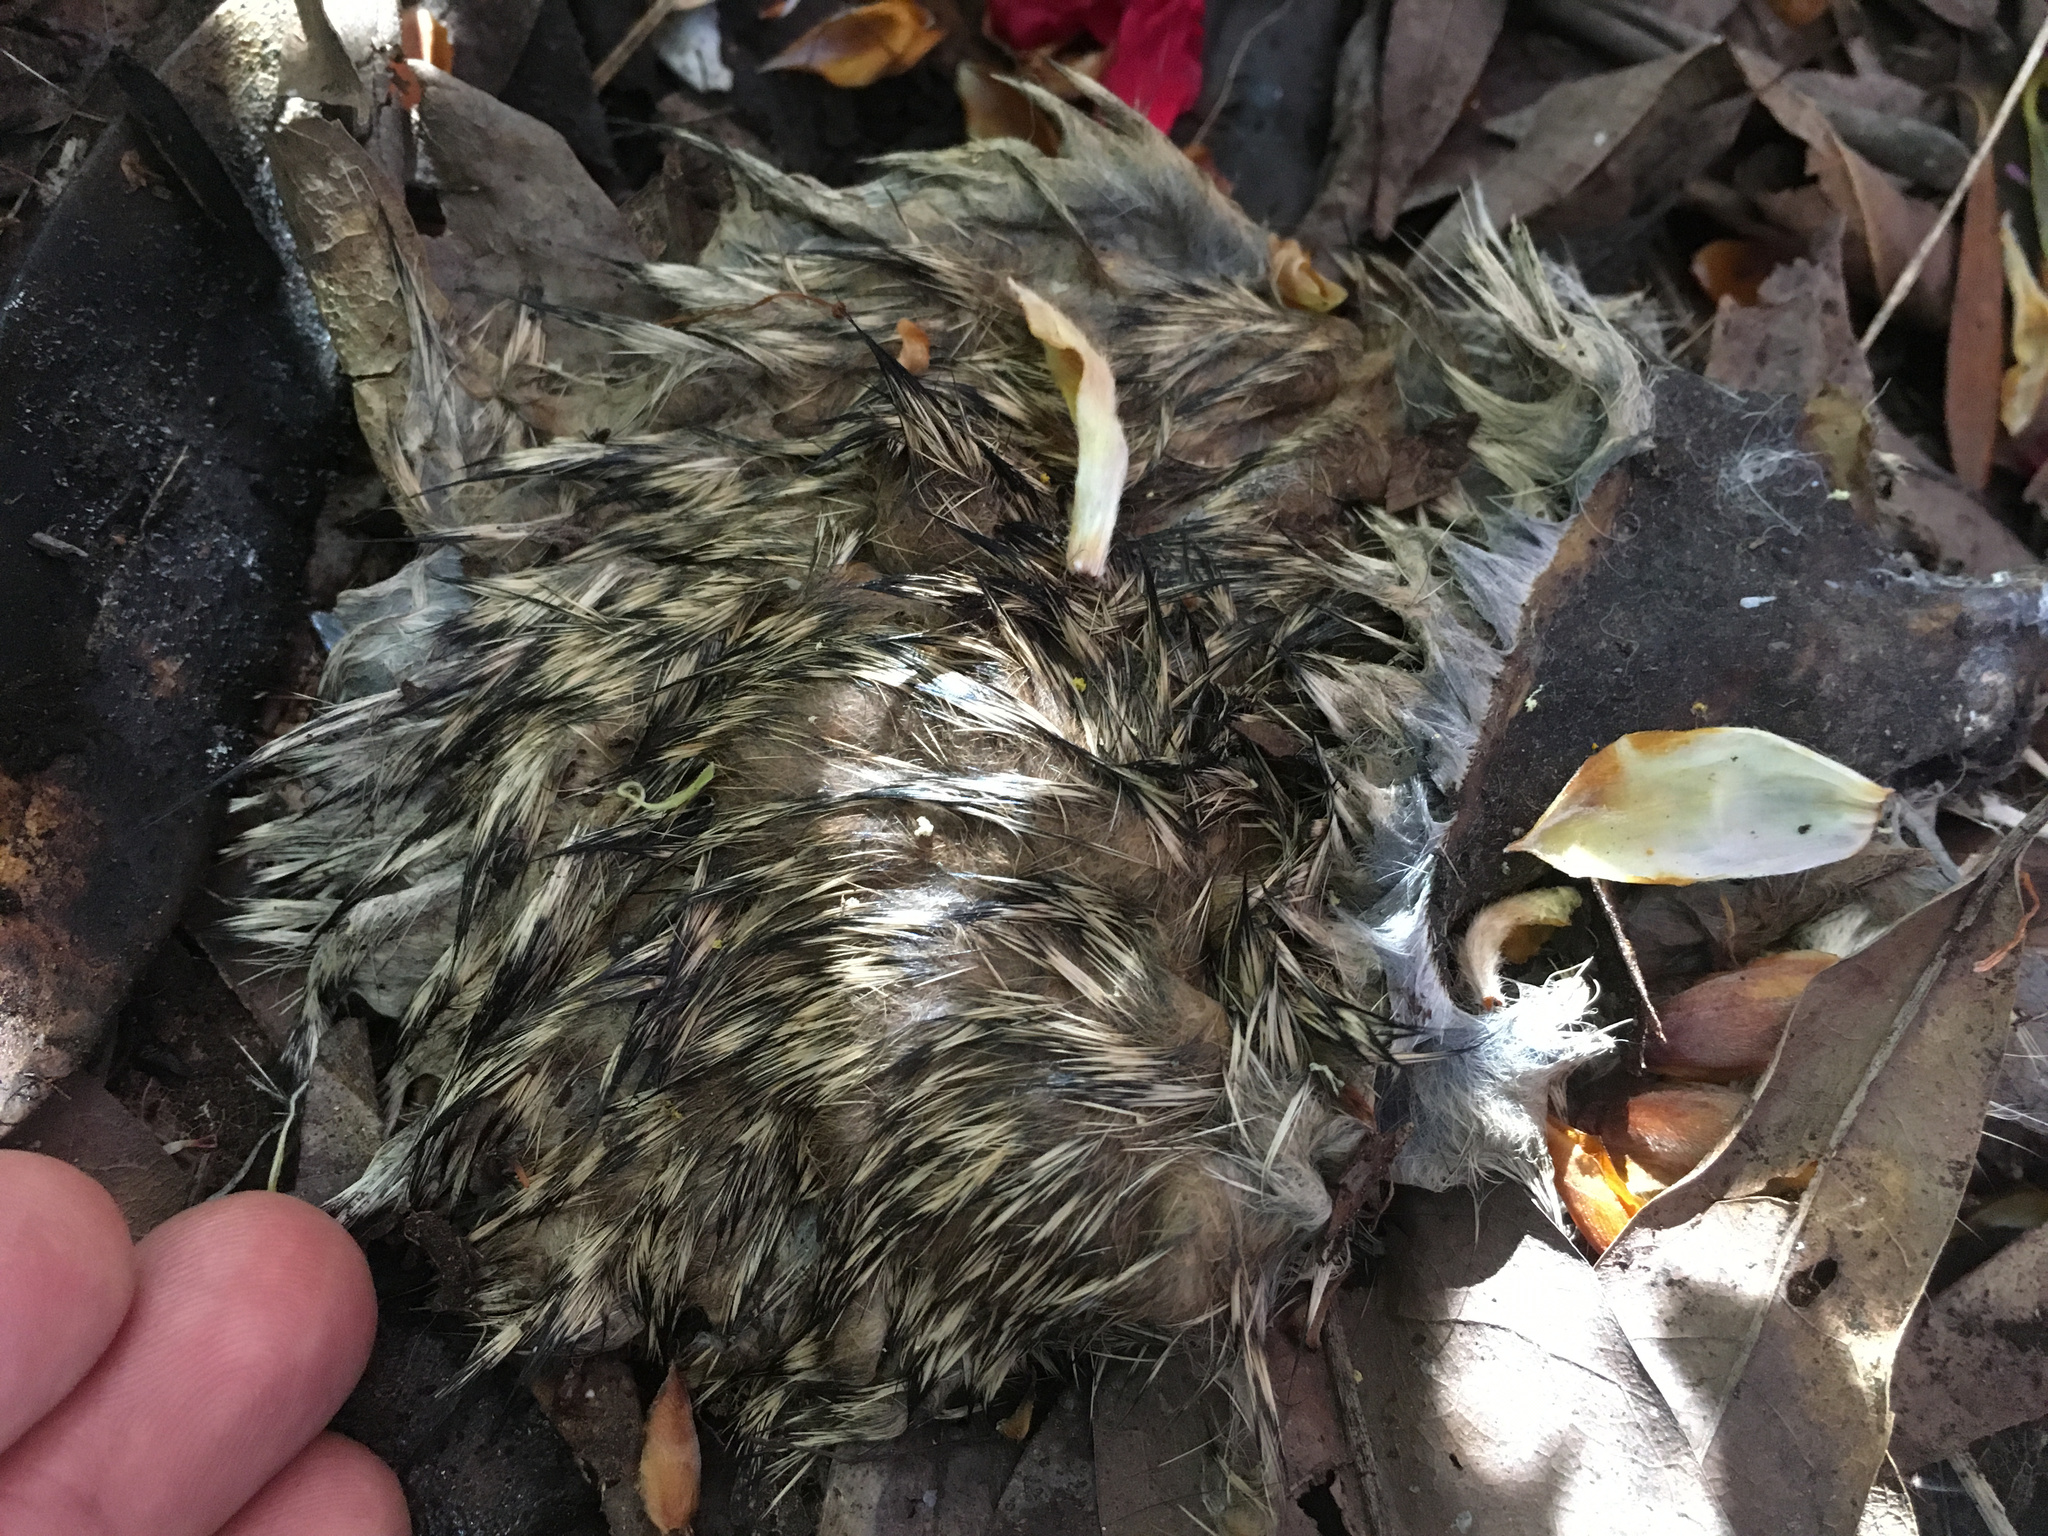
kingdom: Animalia
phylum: Chordata
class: Mammalia
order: Lagomorpha
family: Leporidae
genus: Oryctolagus
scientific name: Oryctolagus cuniculus
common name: European rabbit
